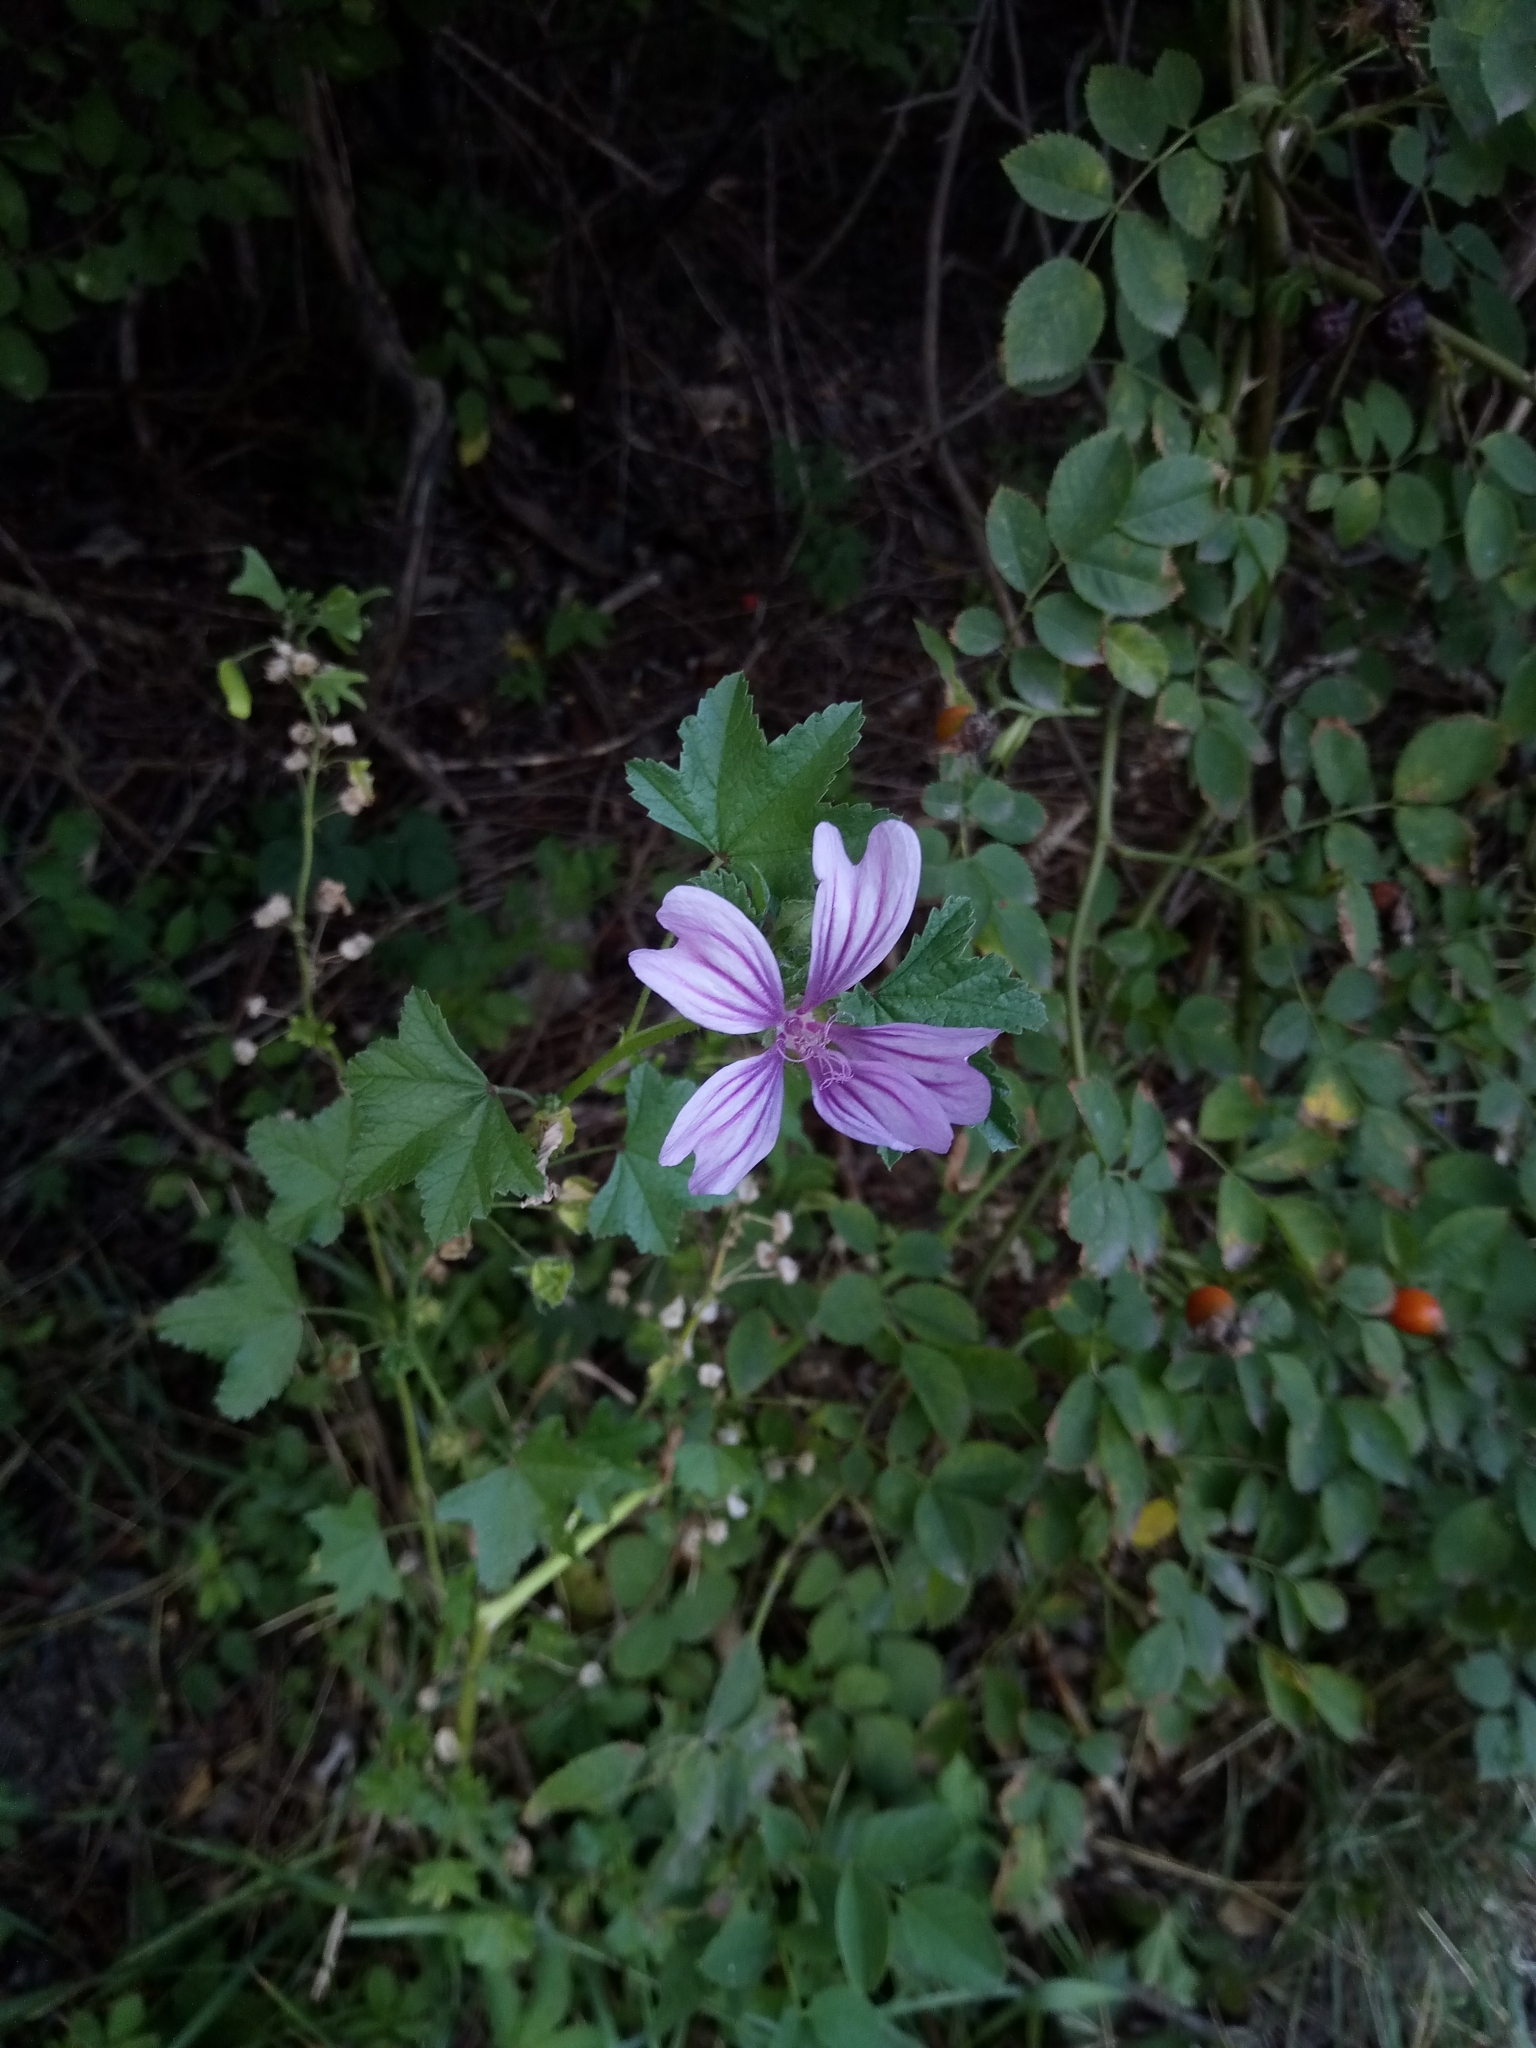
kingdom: Plantae
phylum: Tracheophyta
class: Magnoliopsida
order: Malvales
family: Malvaceae
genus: Malva
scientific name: Malva sylvestris
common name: Common mallow
